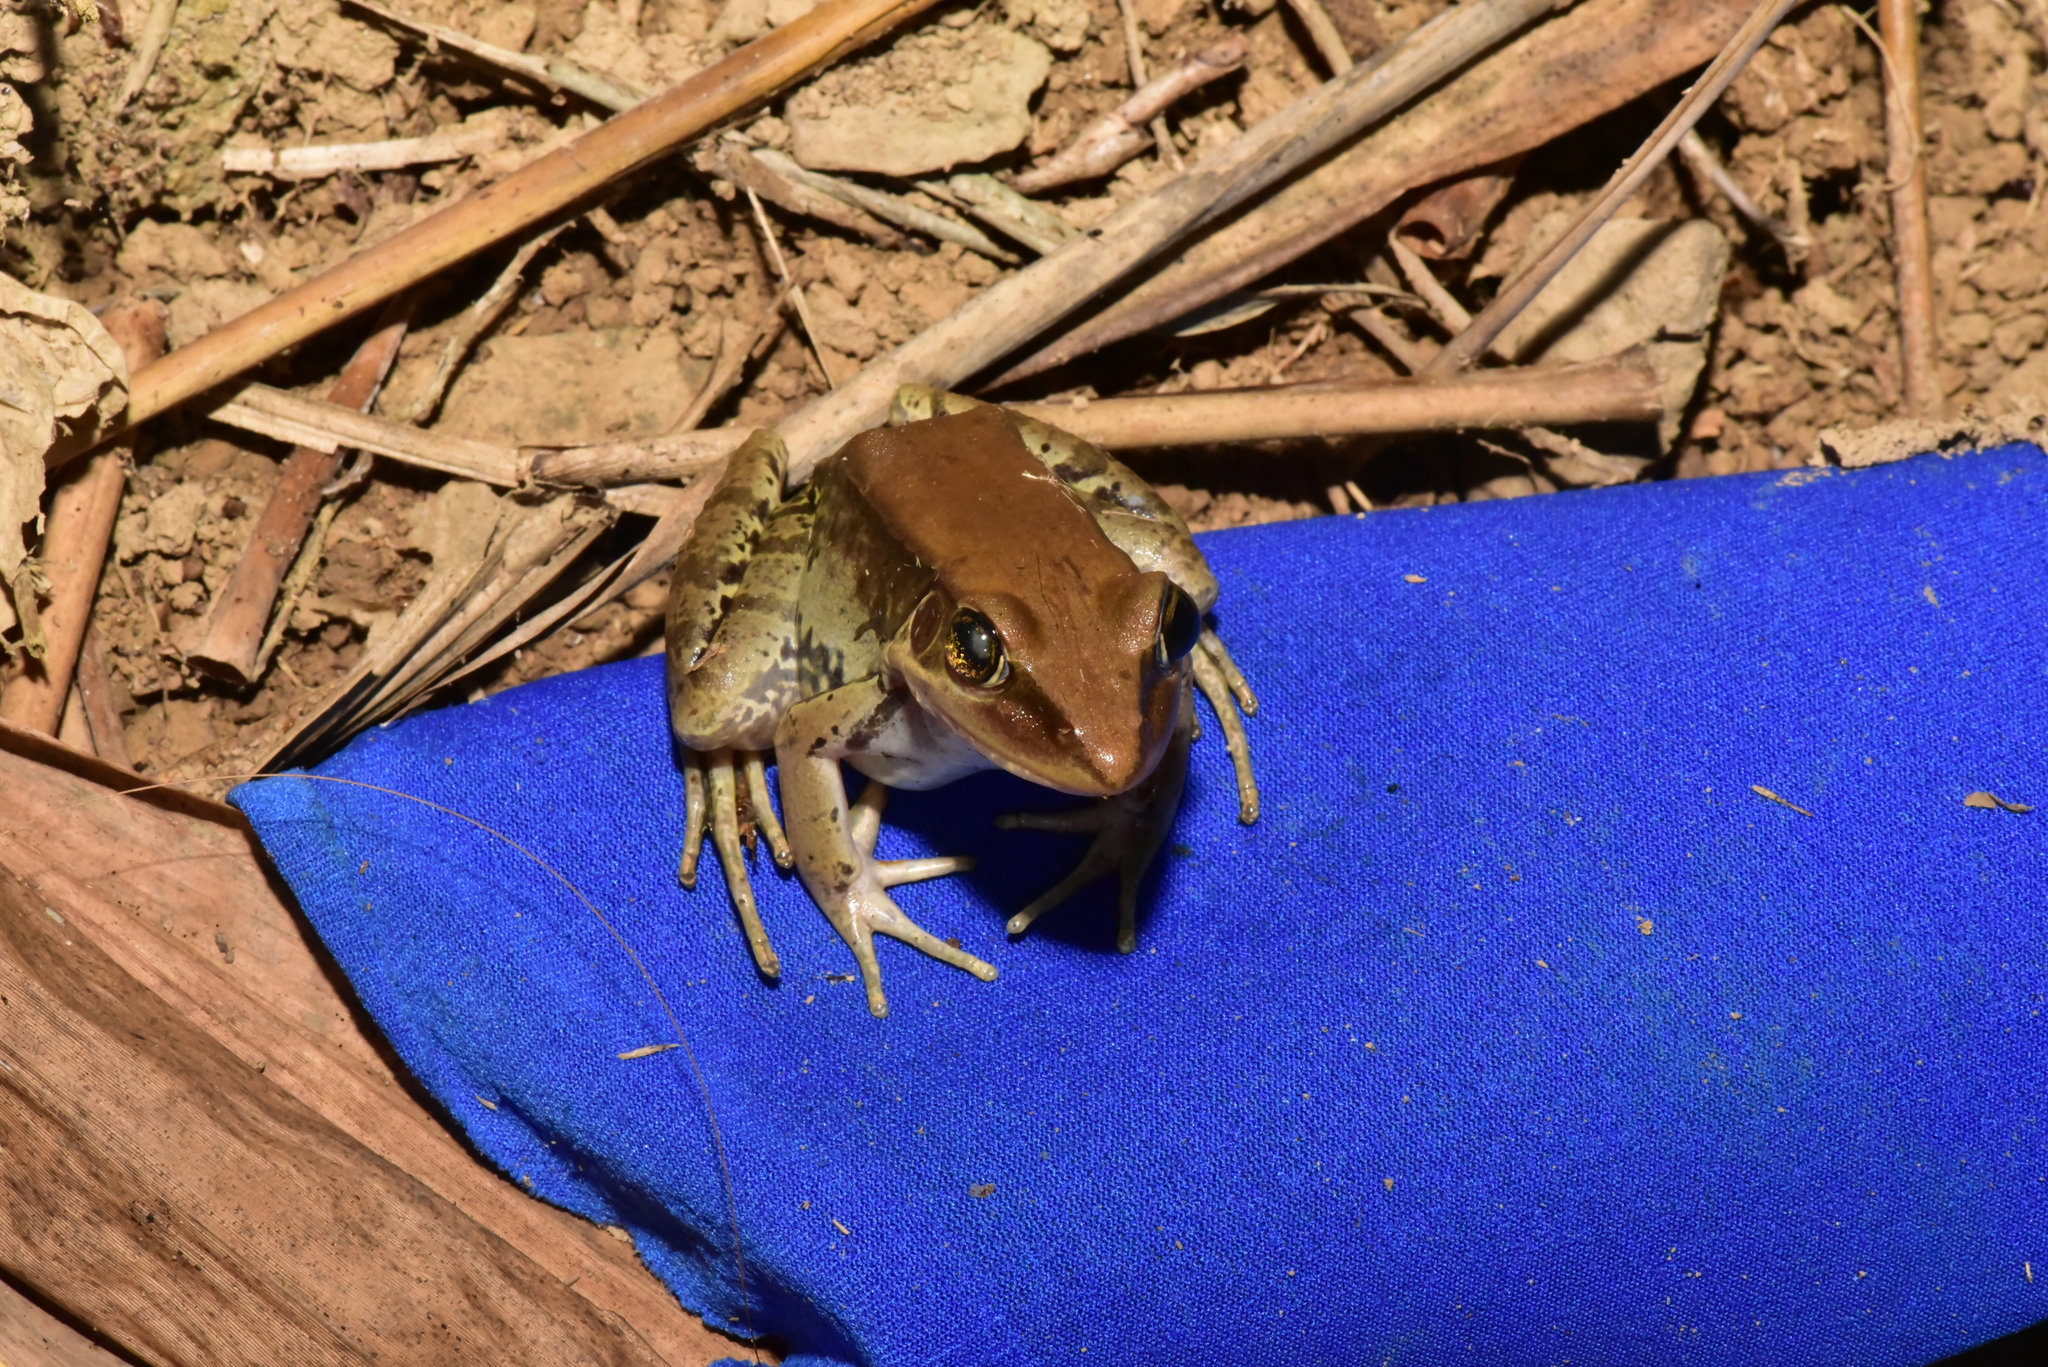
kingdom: Animalia
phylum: Chordata
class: Amphibia
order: Anura
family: Ranidae
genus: Sylvirana
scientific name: Sylvirana guentheri
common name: Guenther's amoy frog
